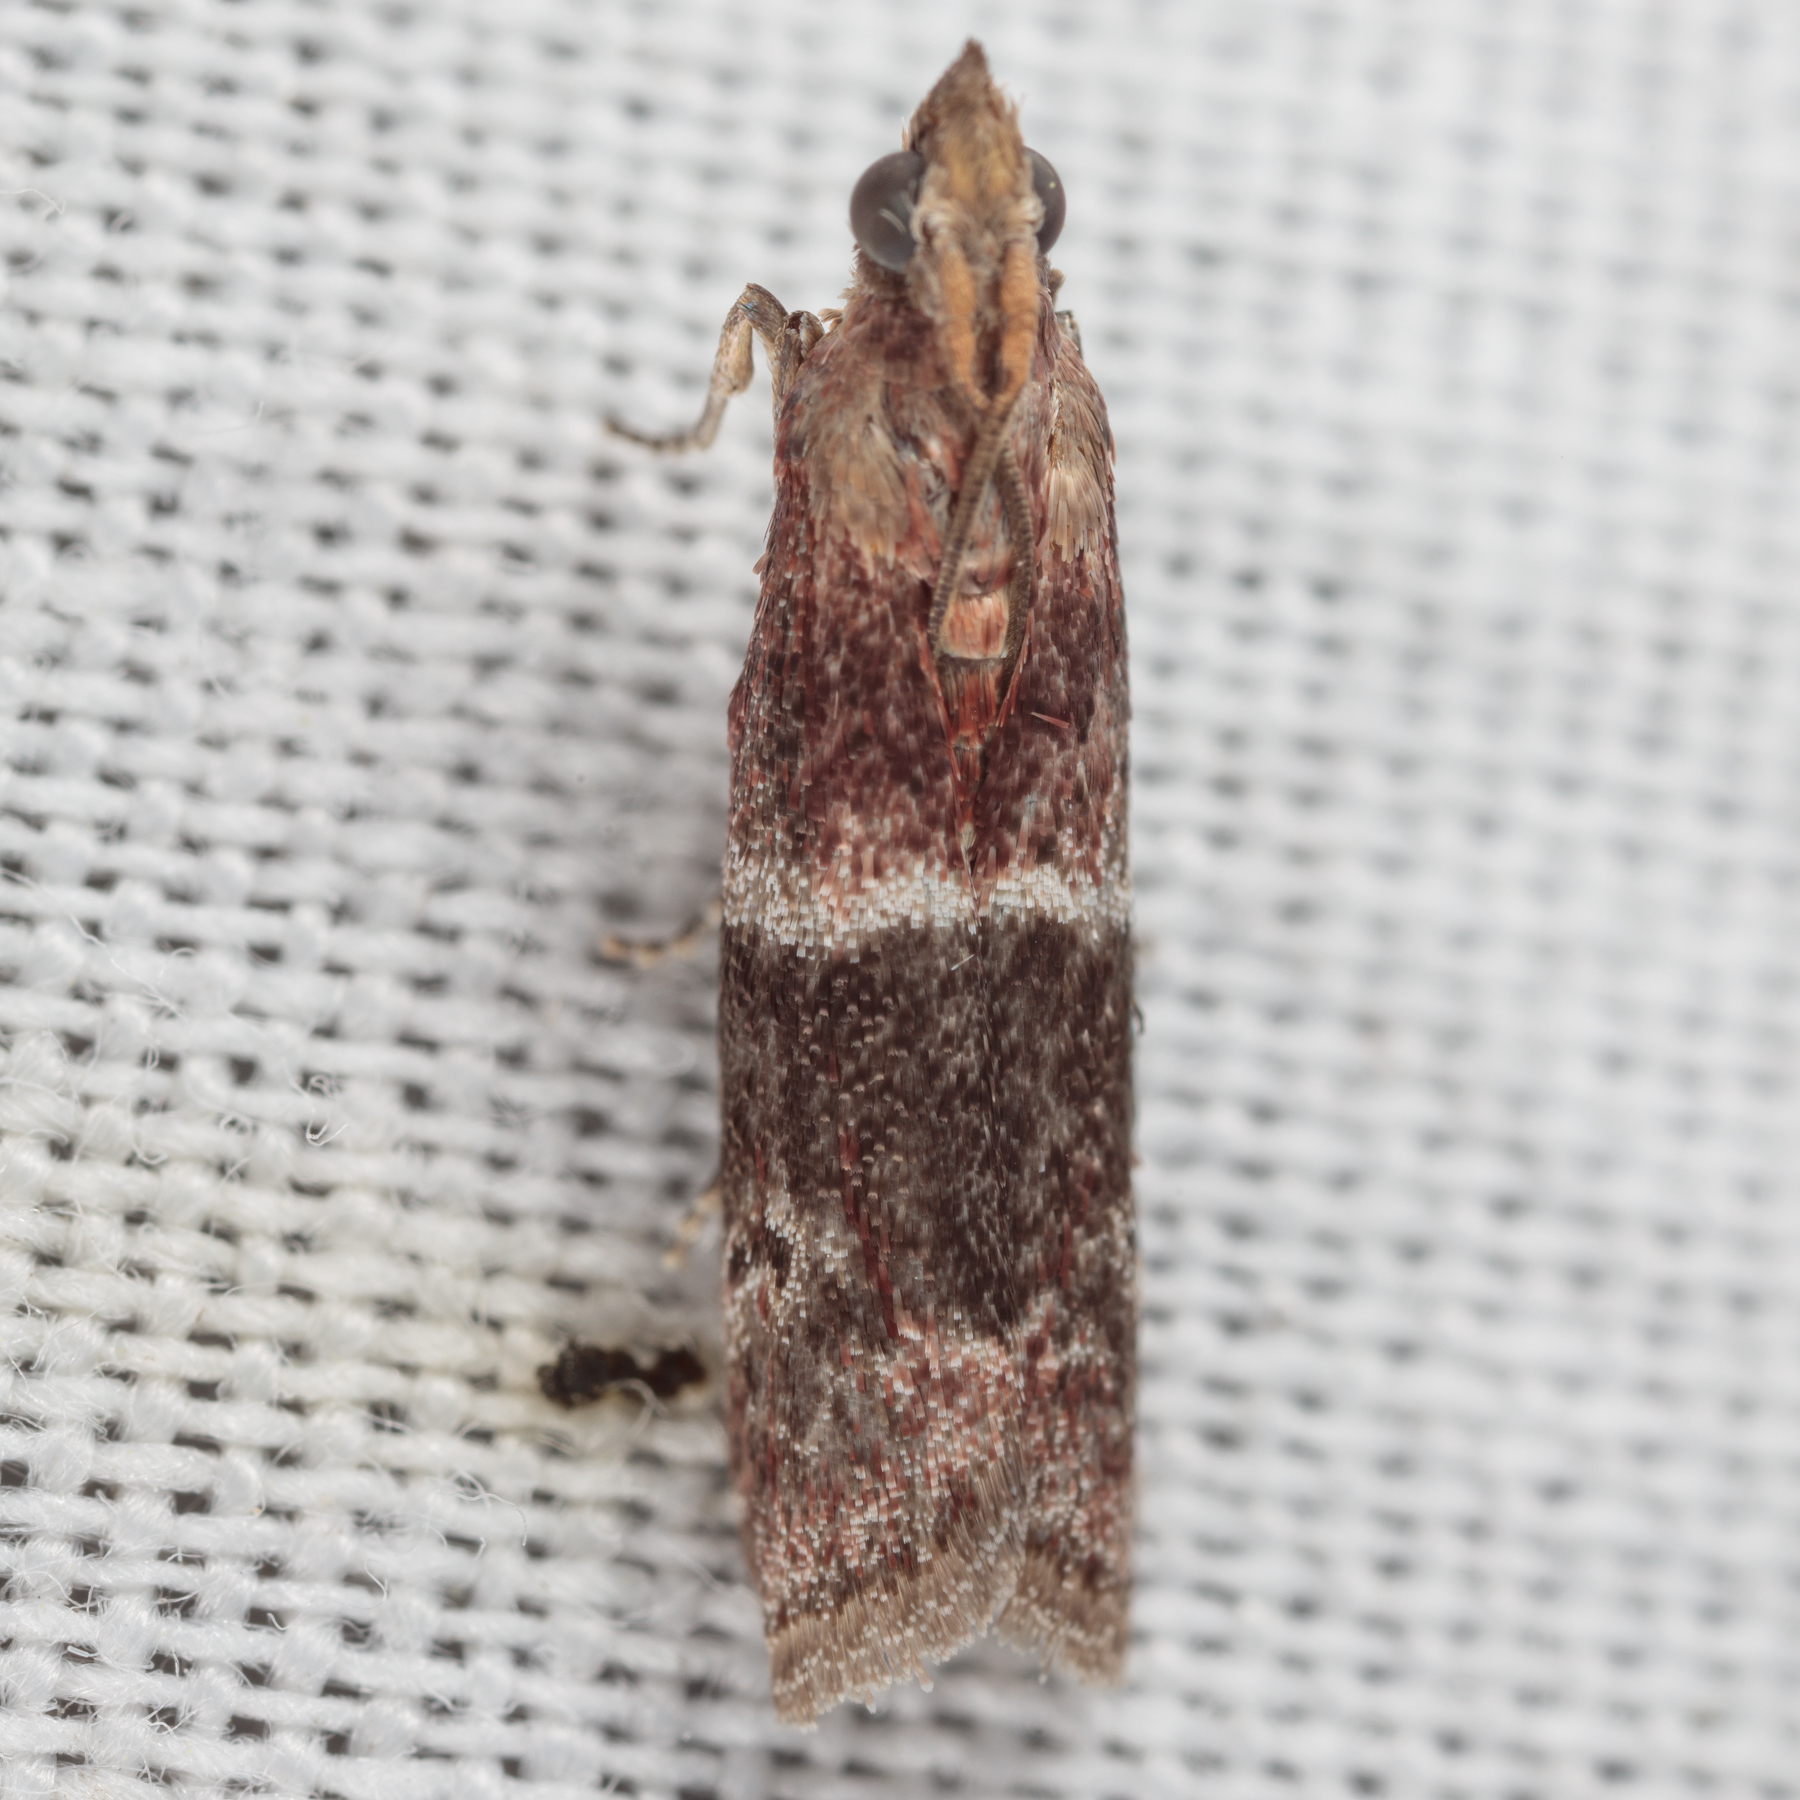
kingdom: Animalia
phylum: Arthropoda
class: Insecta
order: Lepidoptera
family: Pyralidae
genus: Moodna
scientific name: Moodna ostrinella
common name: Darker moodna moth
